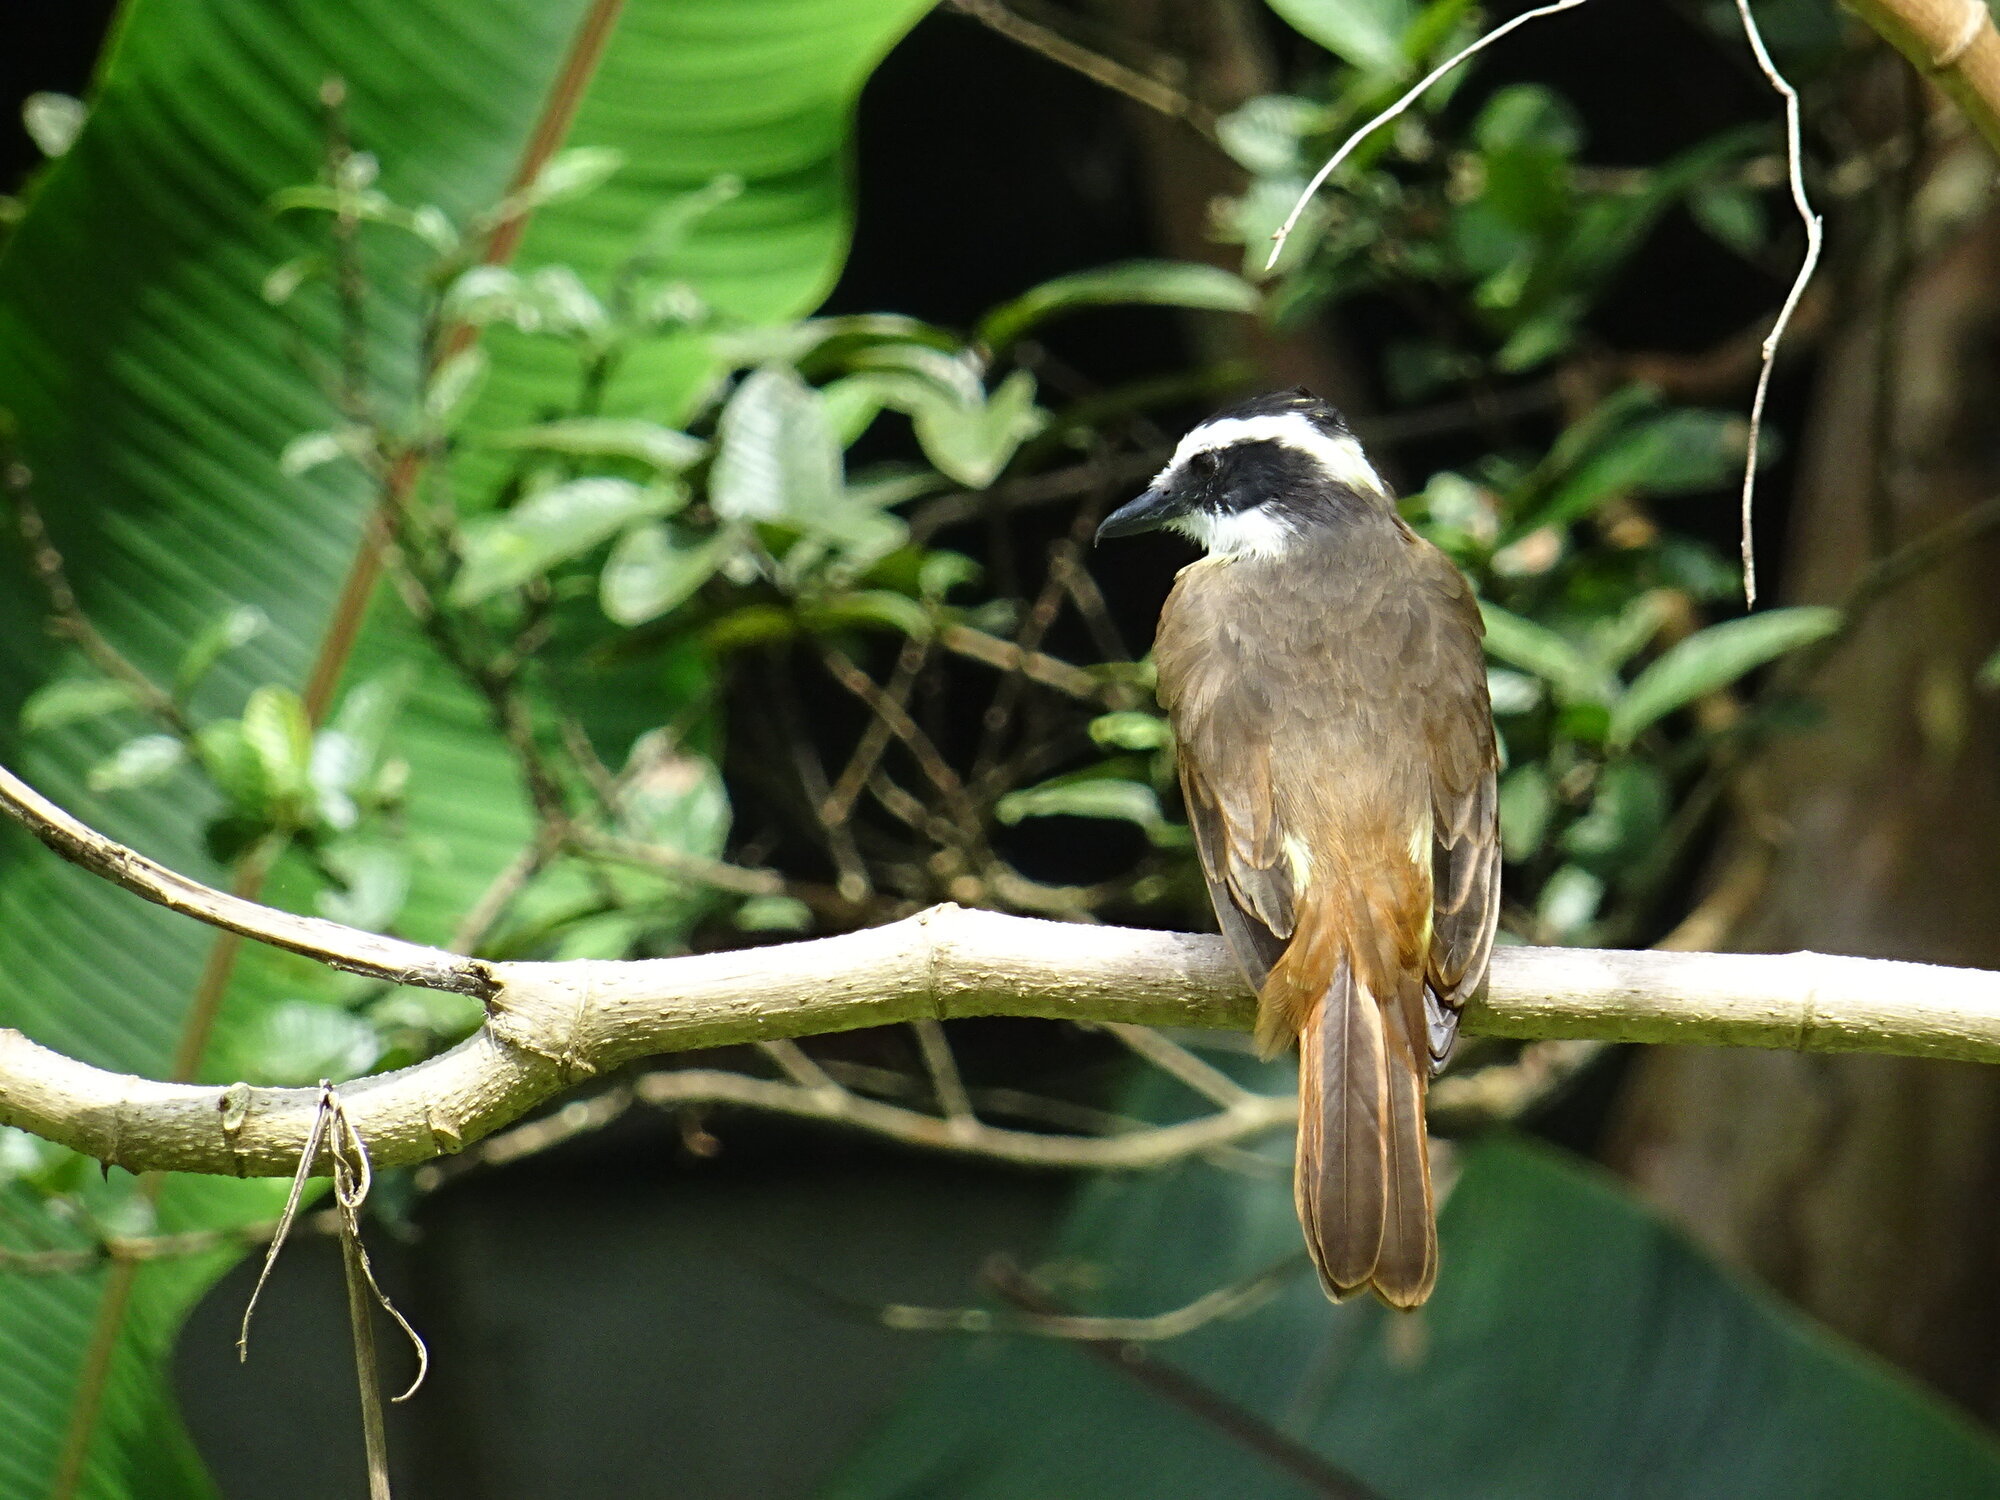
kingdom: Animalia
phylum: Chordata
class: Aves
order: Passeriformes
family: Tyrannidae
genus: Pitangus
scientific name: Pitangus sulphuratus
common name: Great kiskadee
